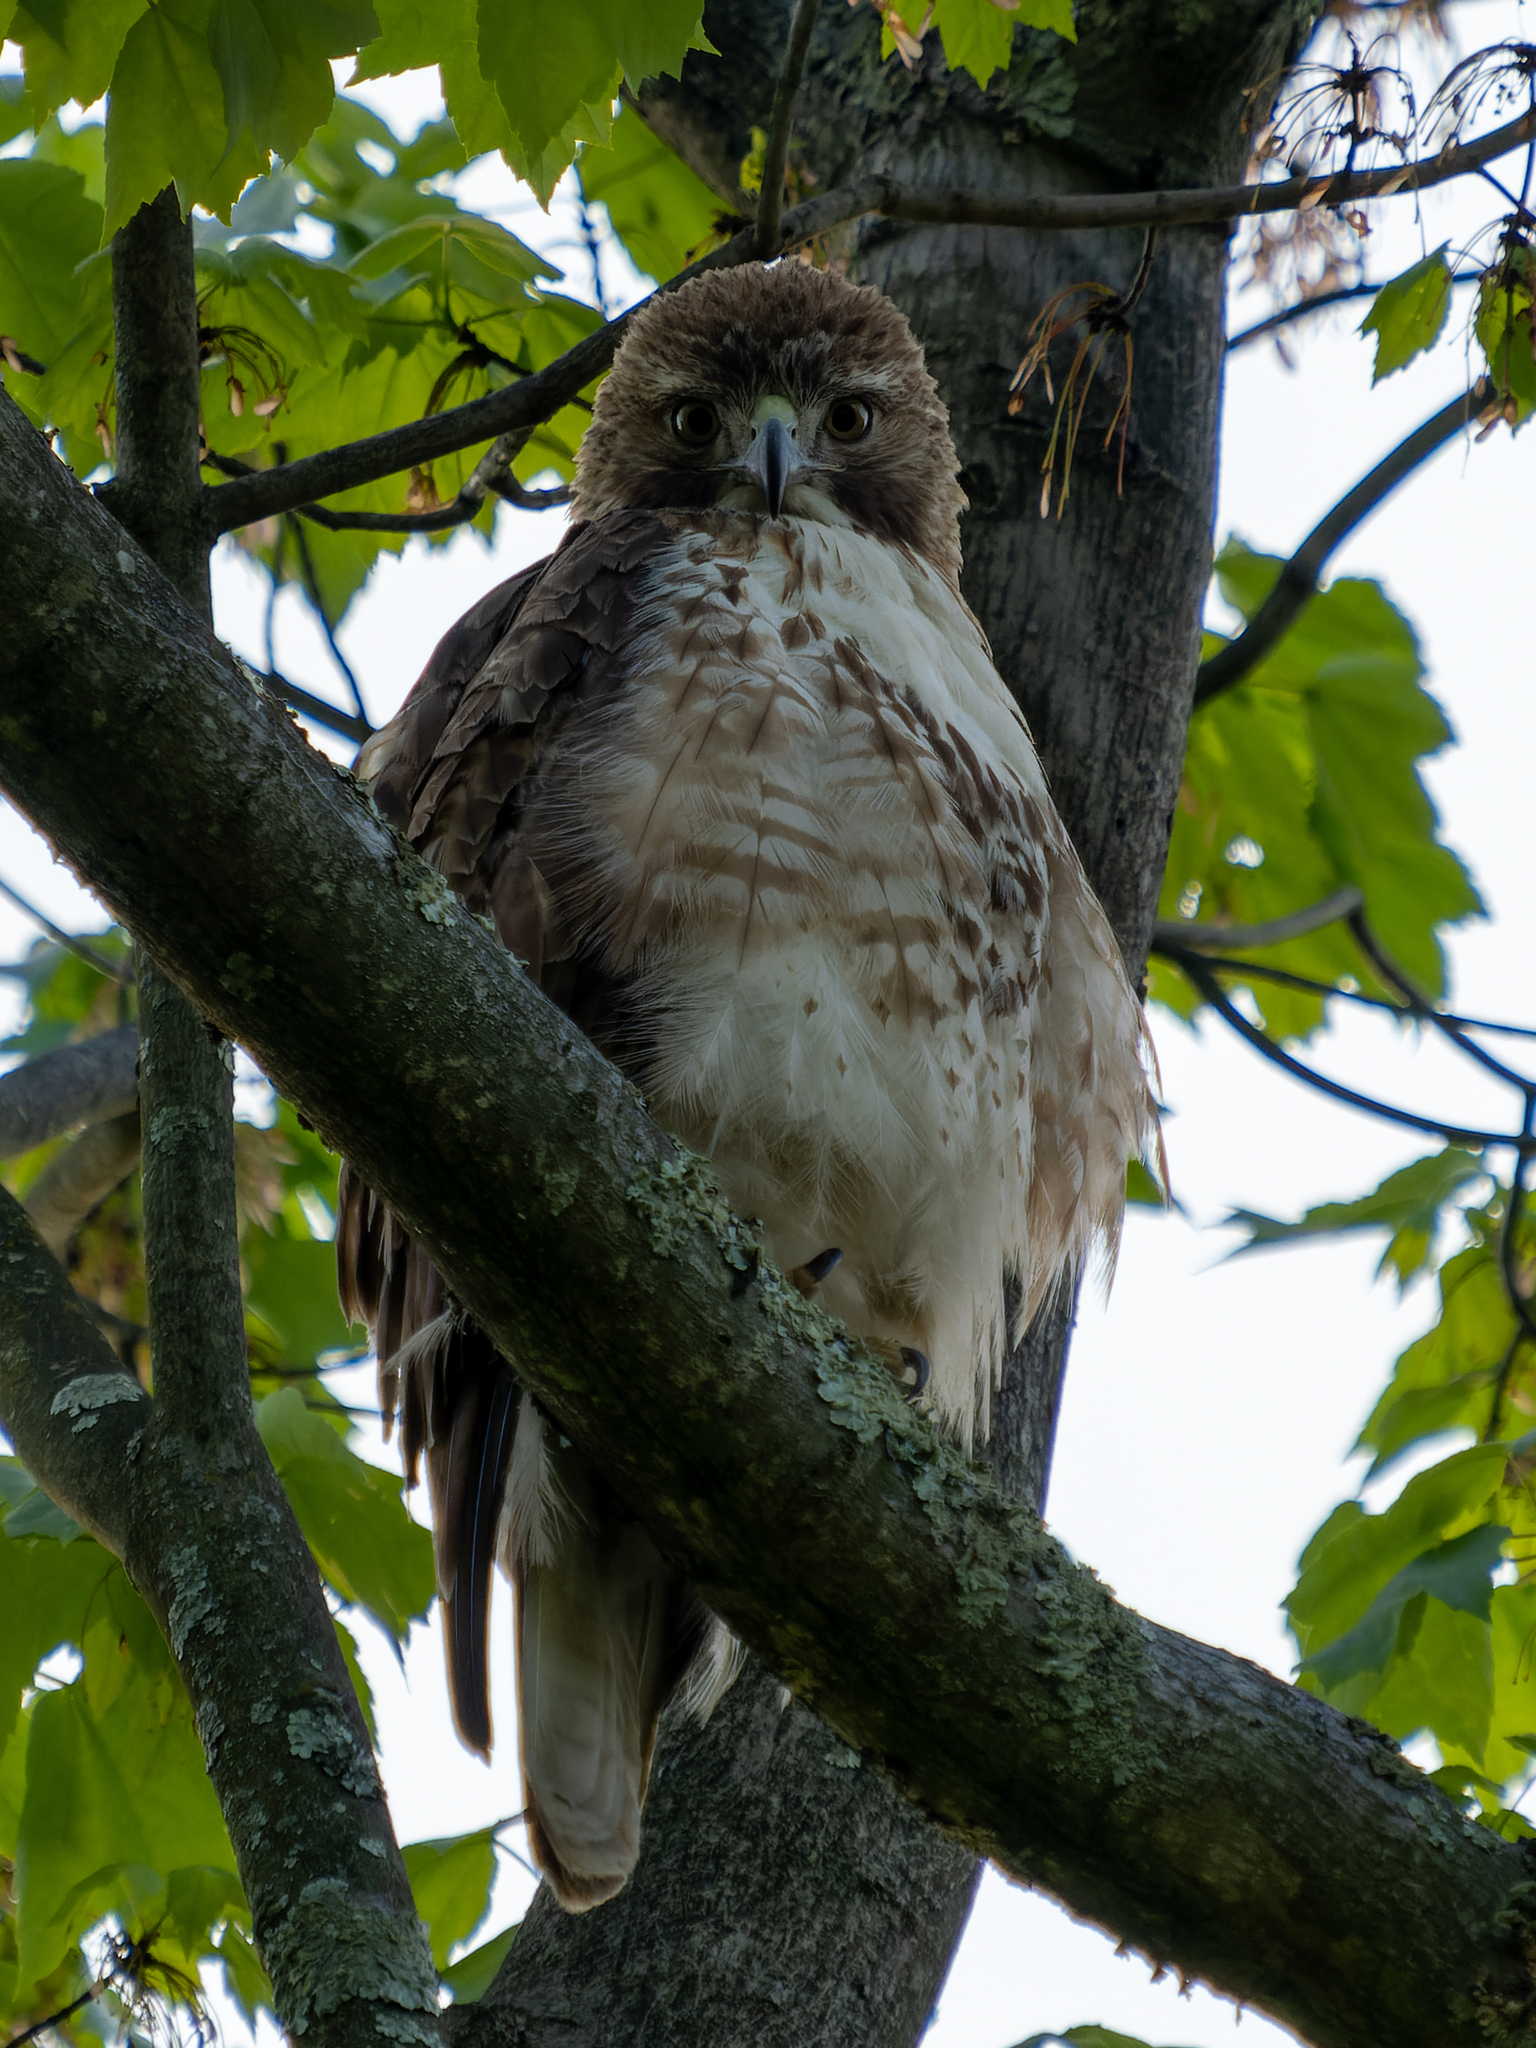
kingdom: Animalia
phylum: Chordata
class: Aves
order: Accipitriformes
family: Accipitridae
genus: Buteo
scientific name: Buteo jamaicensis
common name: Red-tailed hawk
